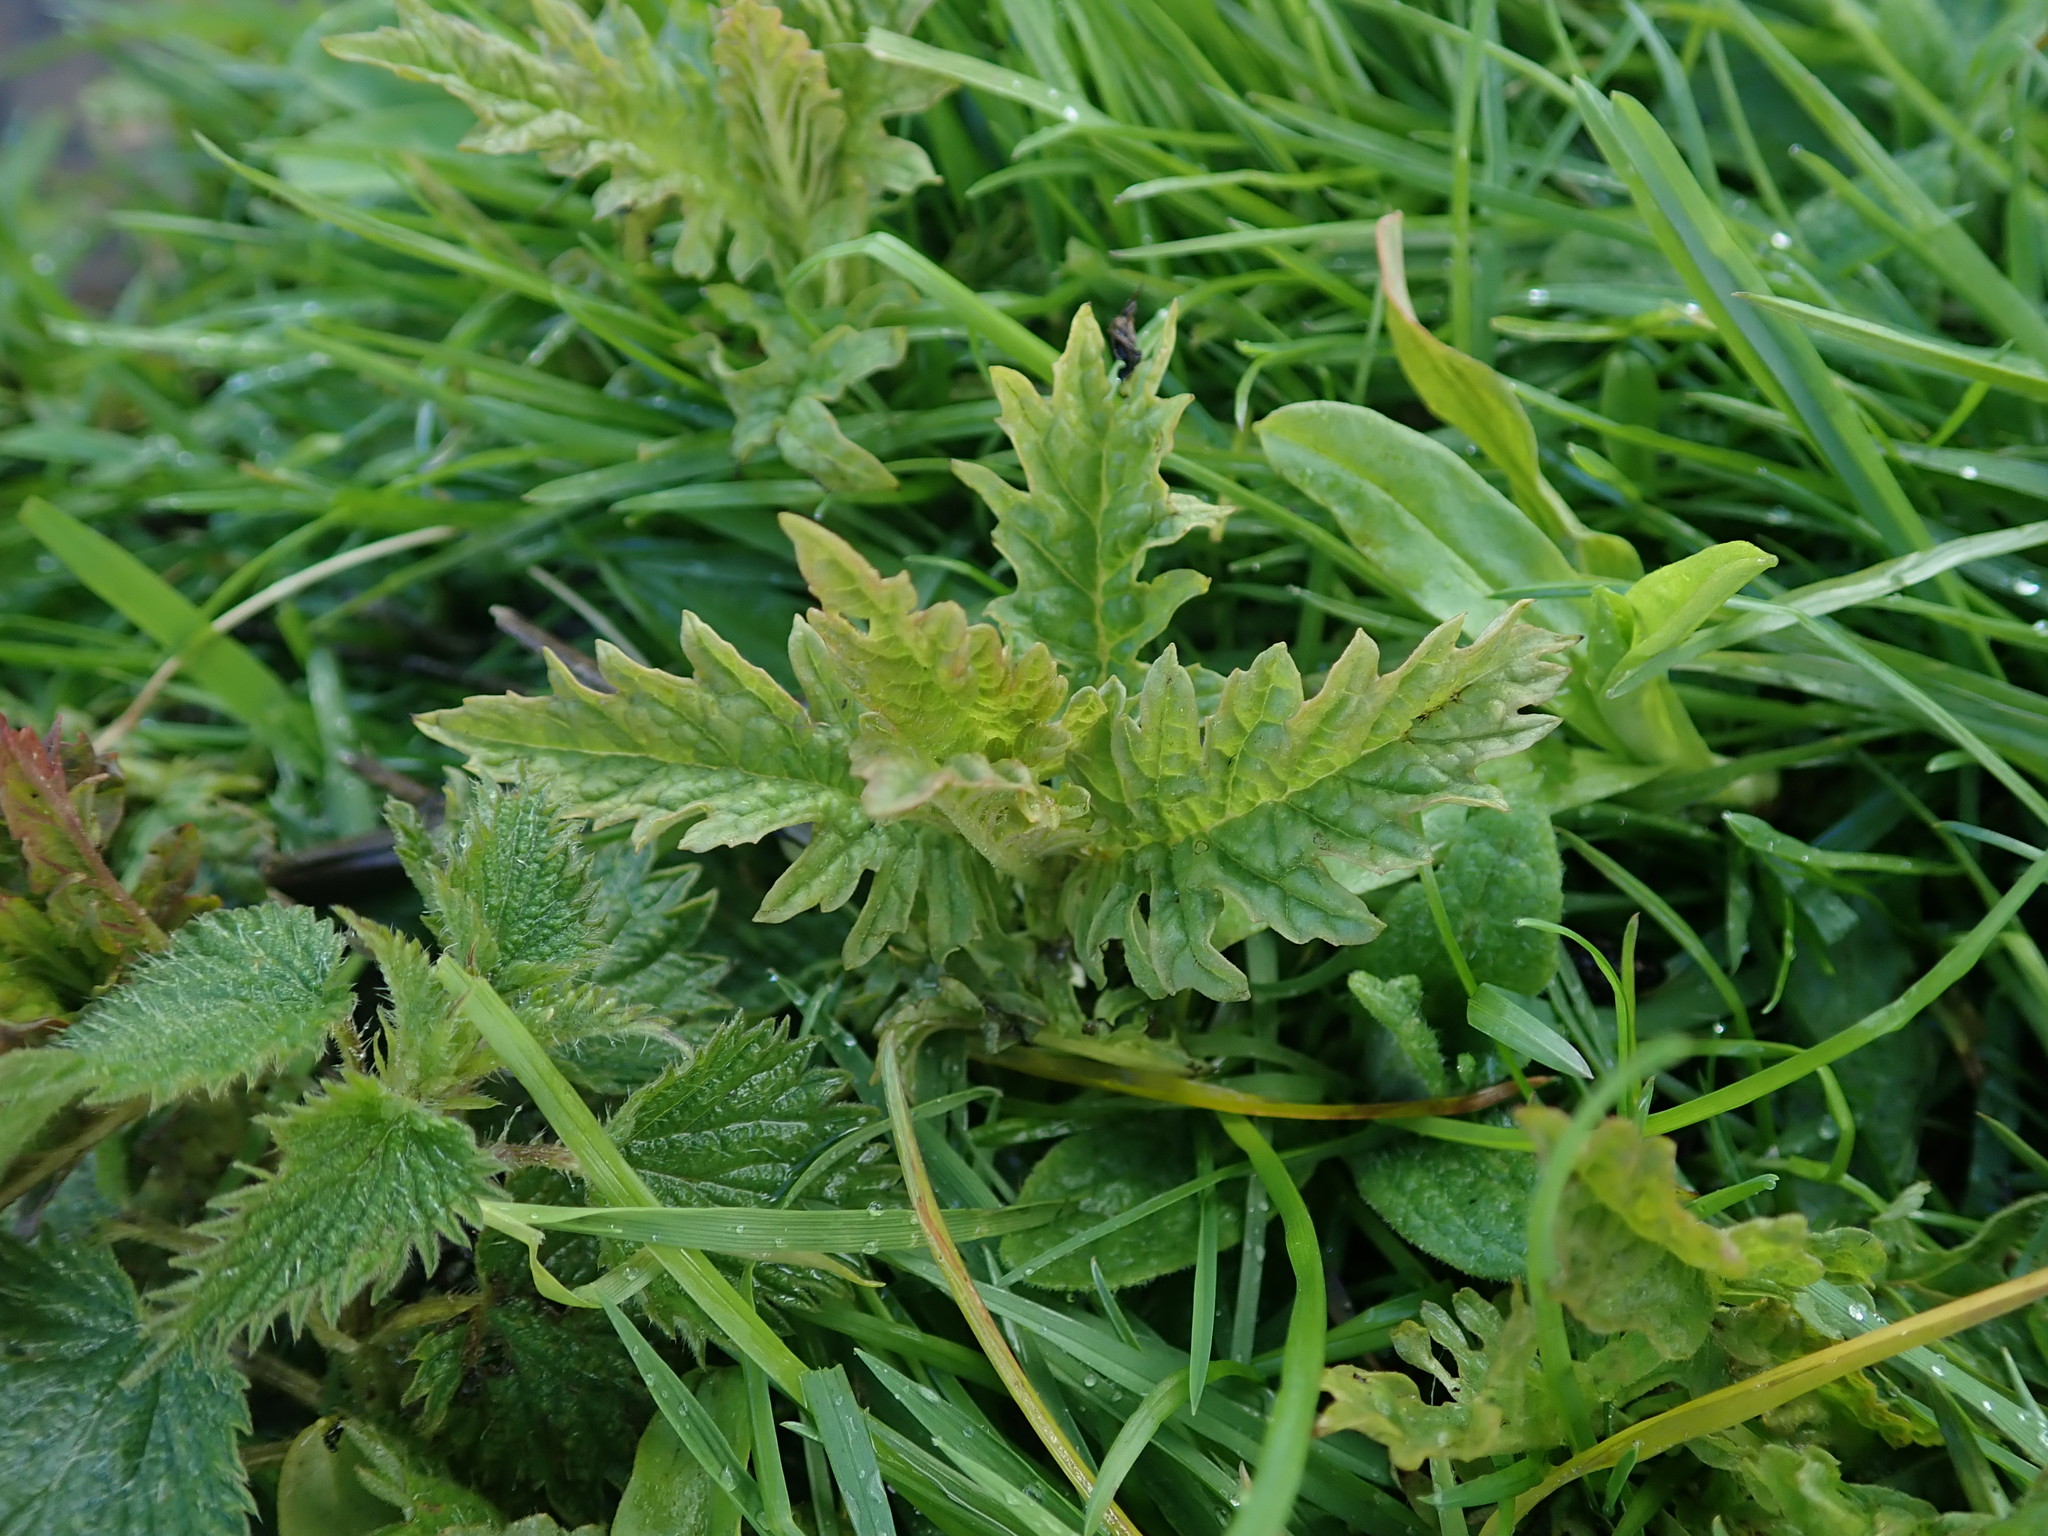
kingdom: Plantae
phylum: Tracheophyta
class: Magnoliopsida
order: Lamiales
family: Lamiaceae
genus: Lycopus
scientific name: Lycopus europaeus
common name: European bugleweed
